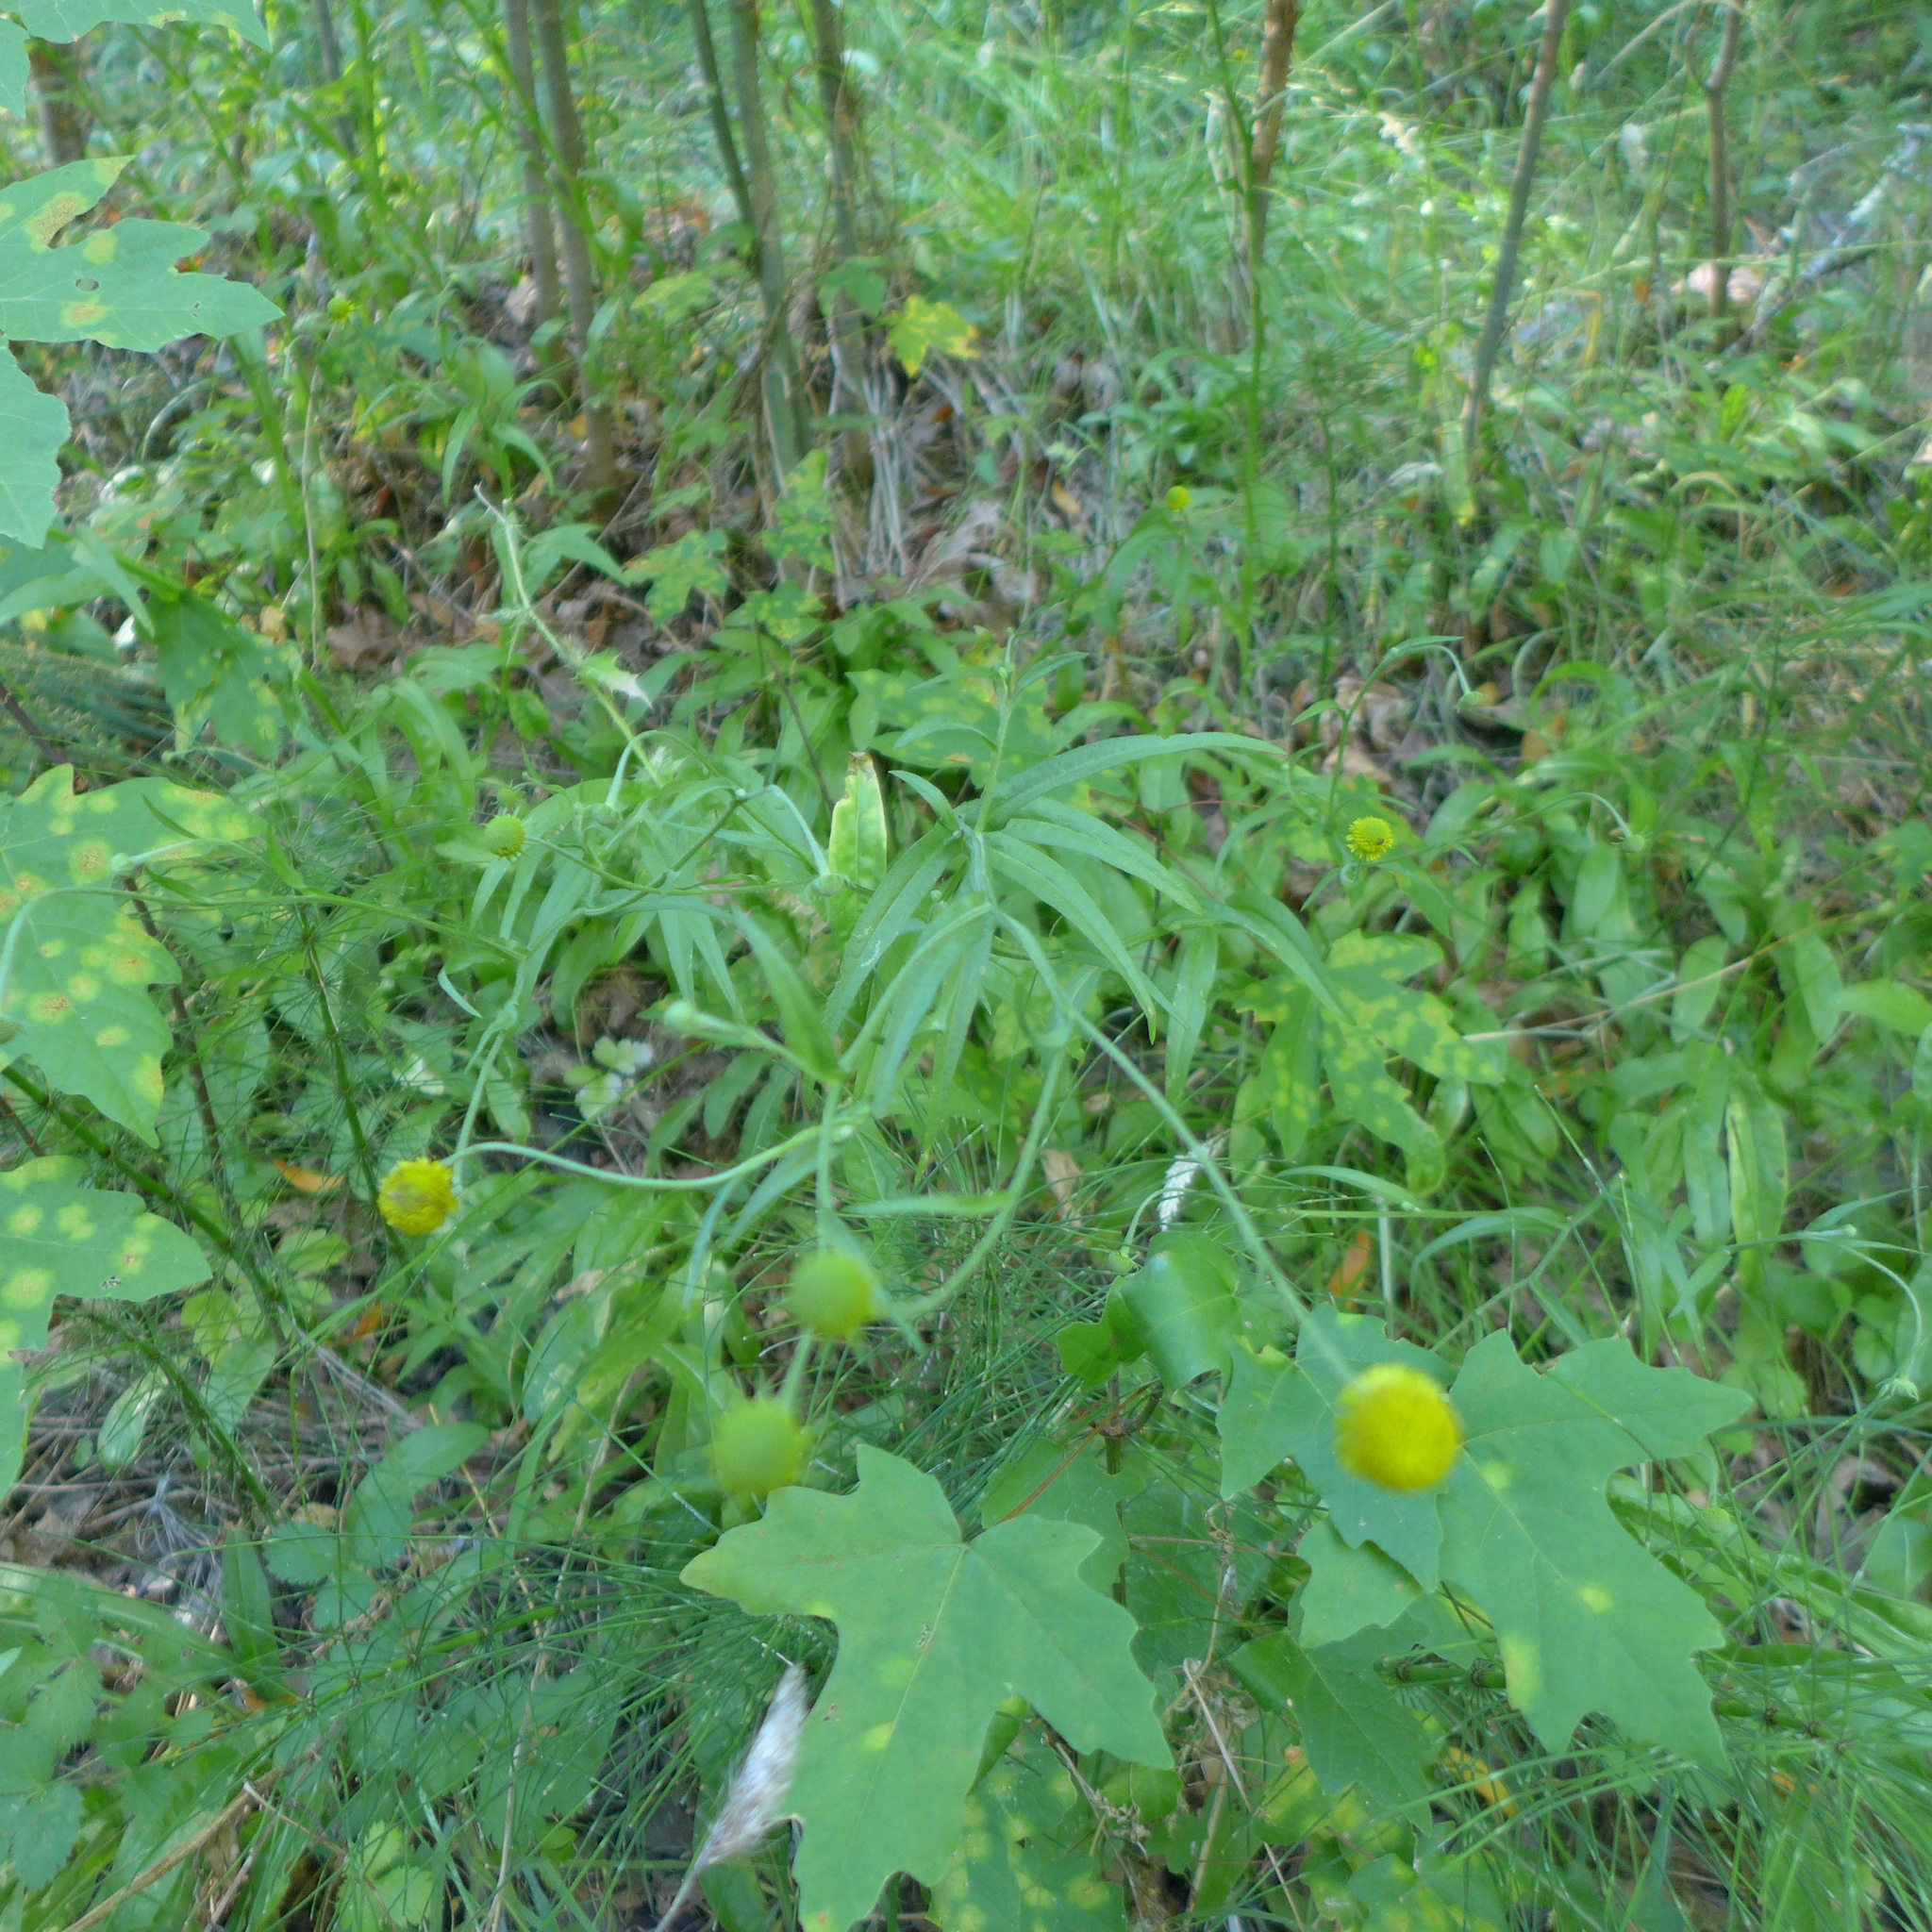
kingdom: Plantae
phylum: Tracheophyta
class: Magnoliopsida
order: Asterales
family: Asteraceae
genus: Helenium
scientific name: Helenium puberulum
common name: Sneezewort
